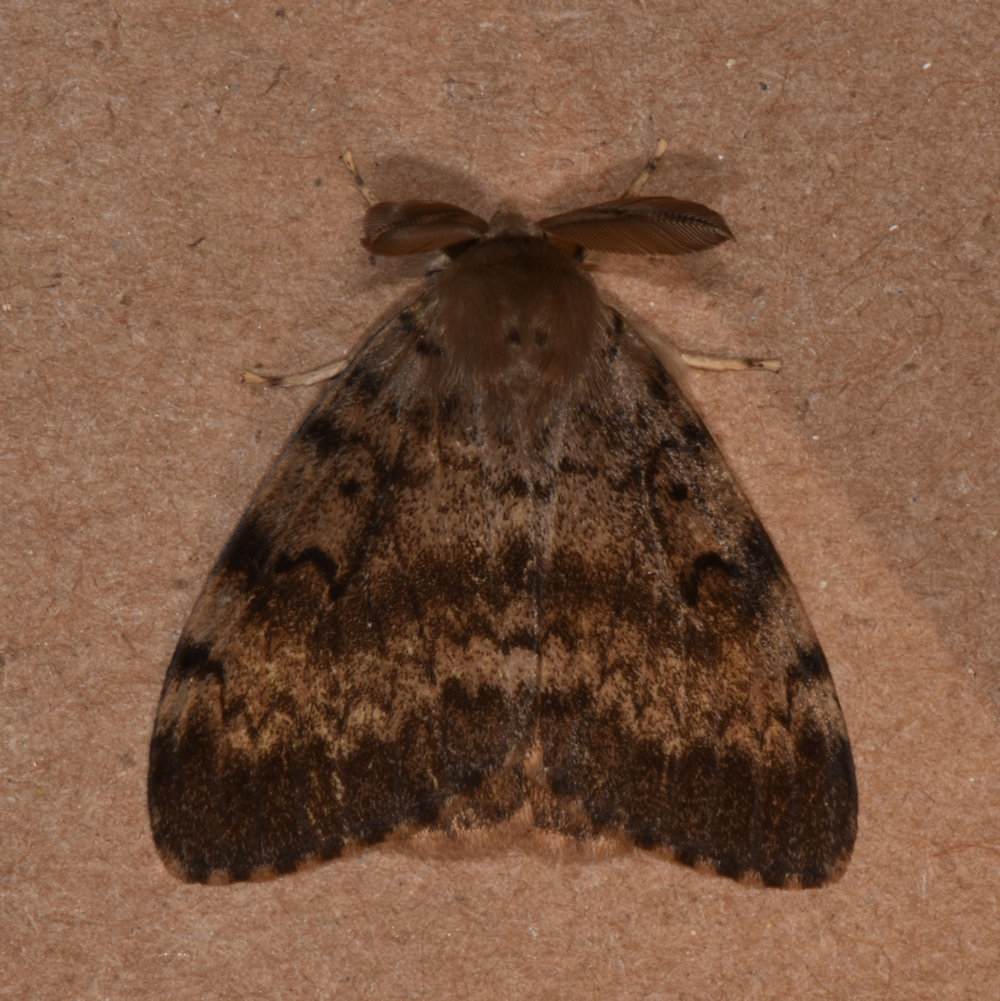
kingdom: Animalia
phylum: Arthropoda
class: Insecta
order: Lepidoptera
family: Erebidae
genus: Lymantria
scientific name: Lymantria dispar
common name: Gypsy moth
